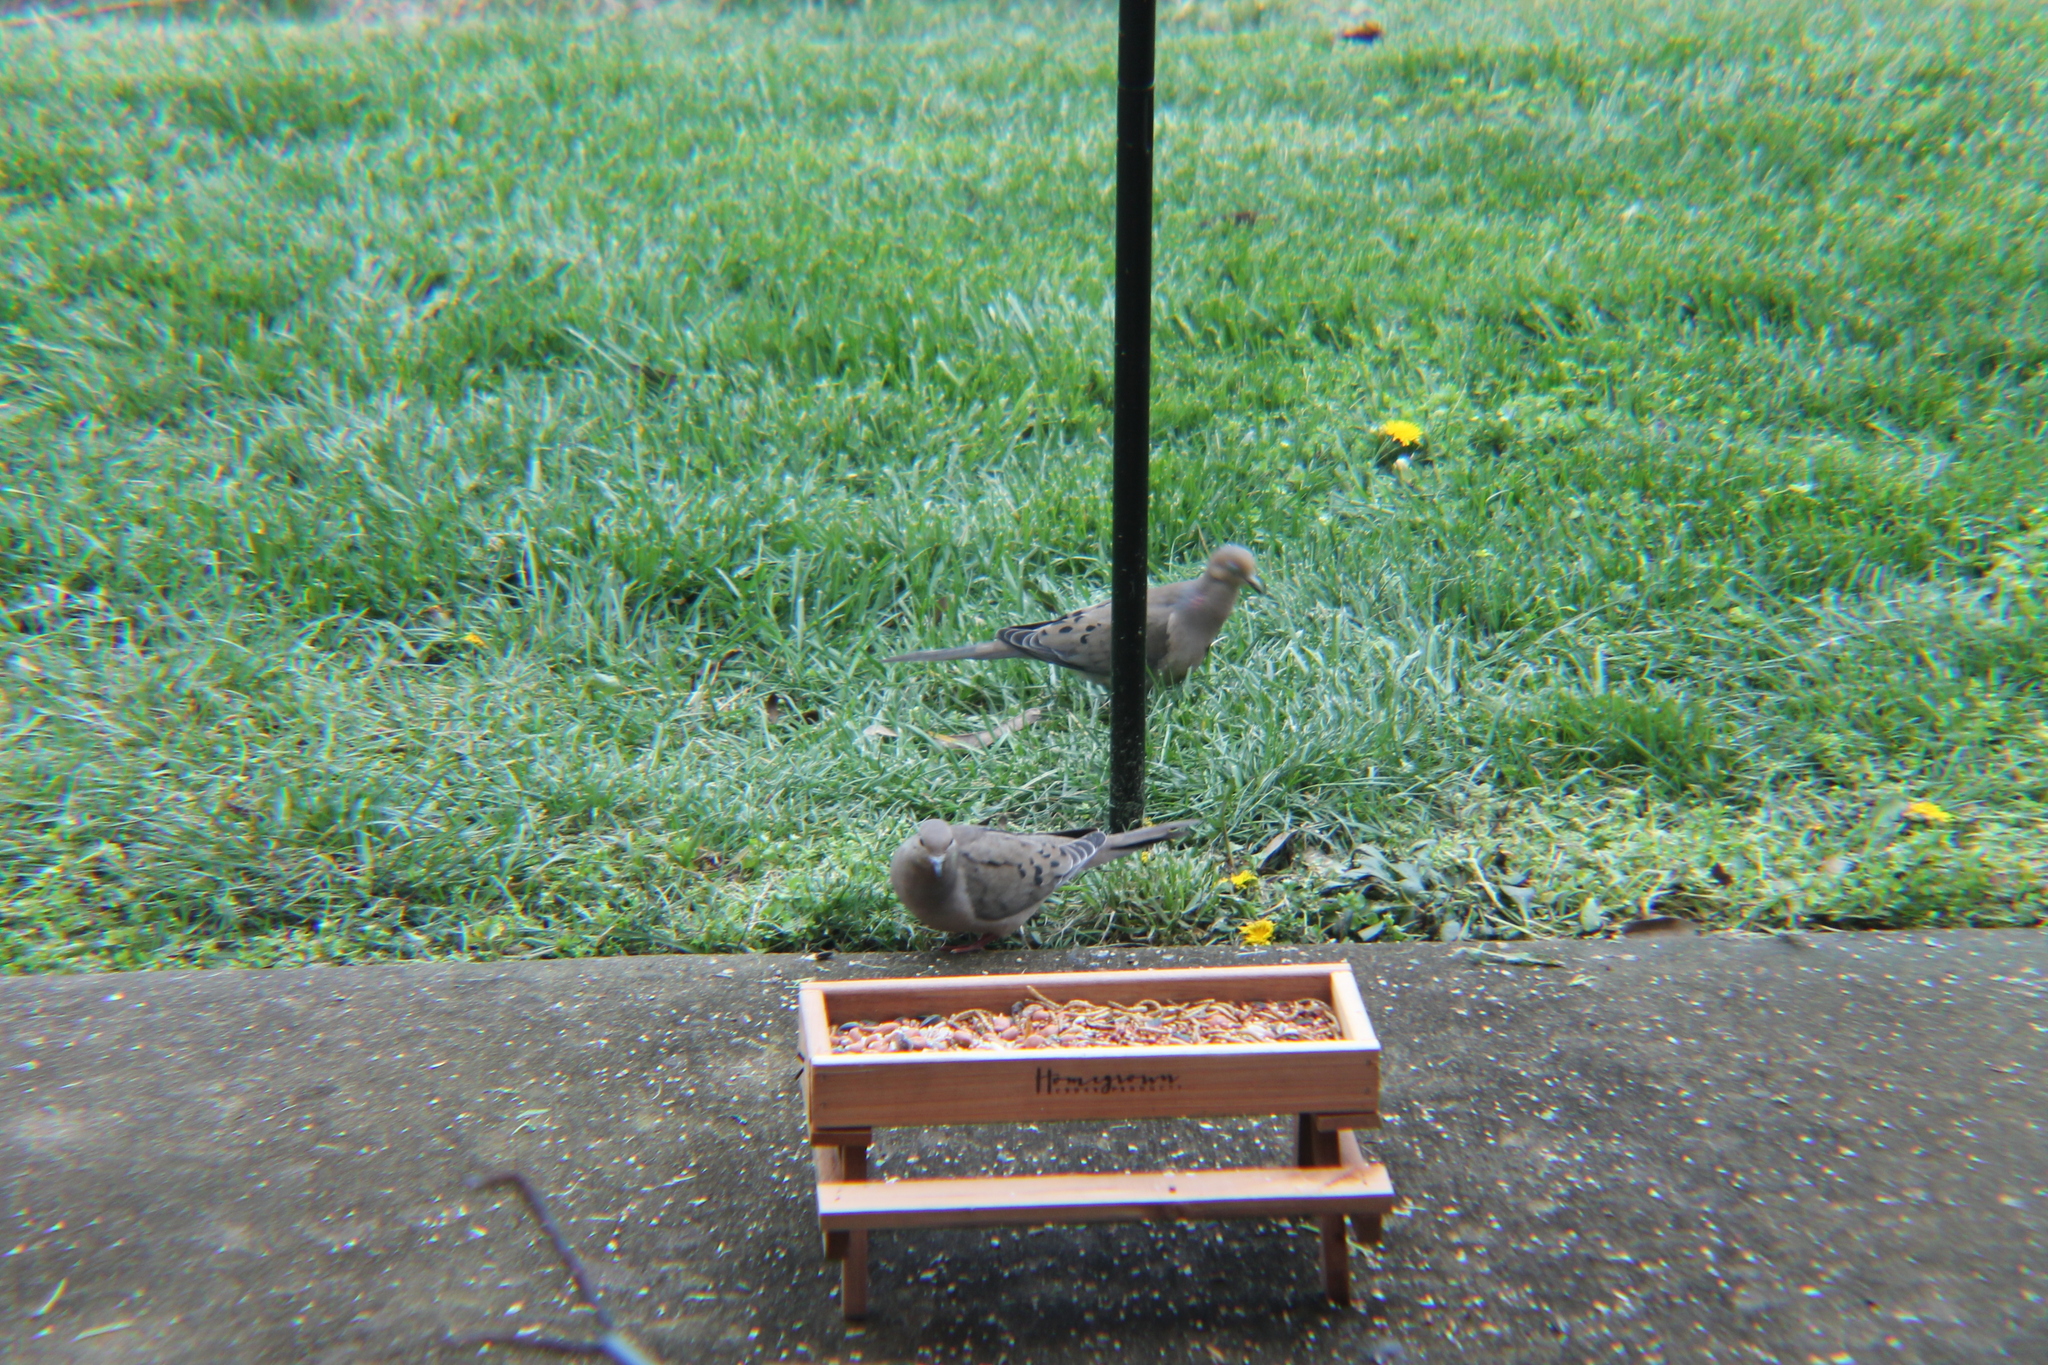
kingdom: Animalia
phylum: Chordata
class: Aves
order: Columbiformes
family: Columbidae
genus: Zenaida
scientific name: Zenaida macroura
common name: Mourning dove
